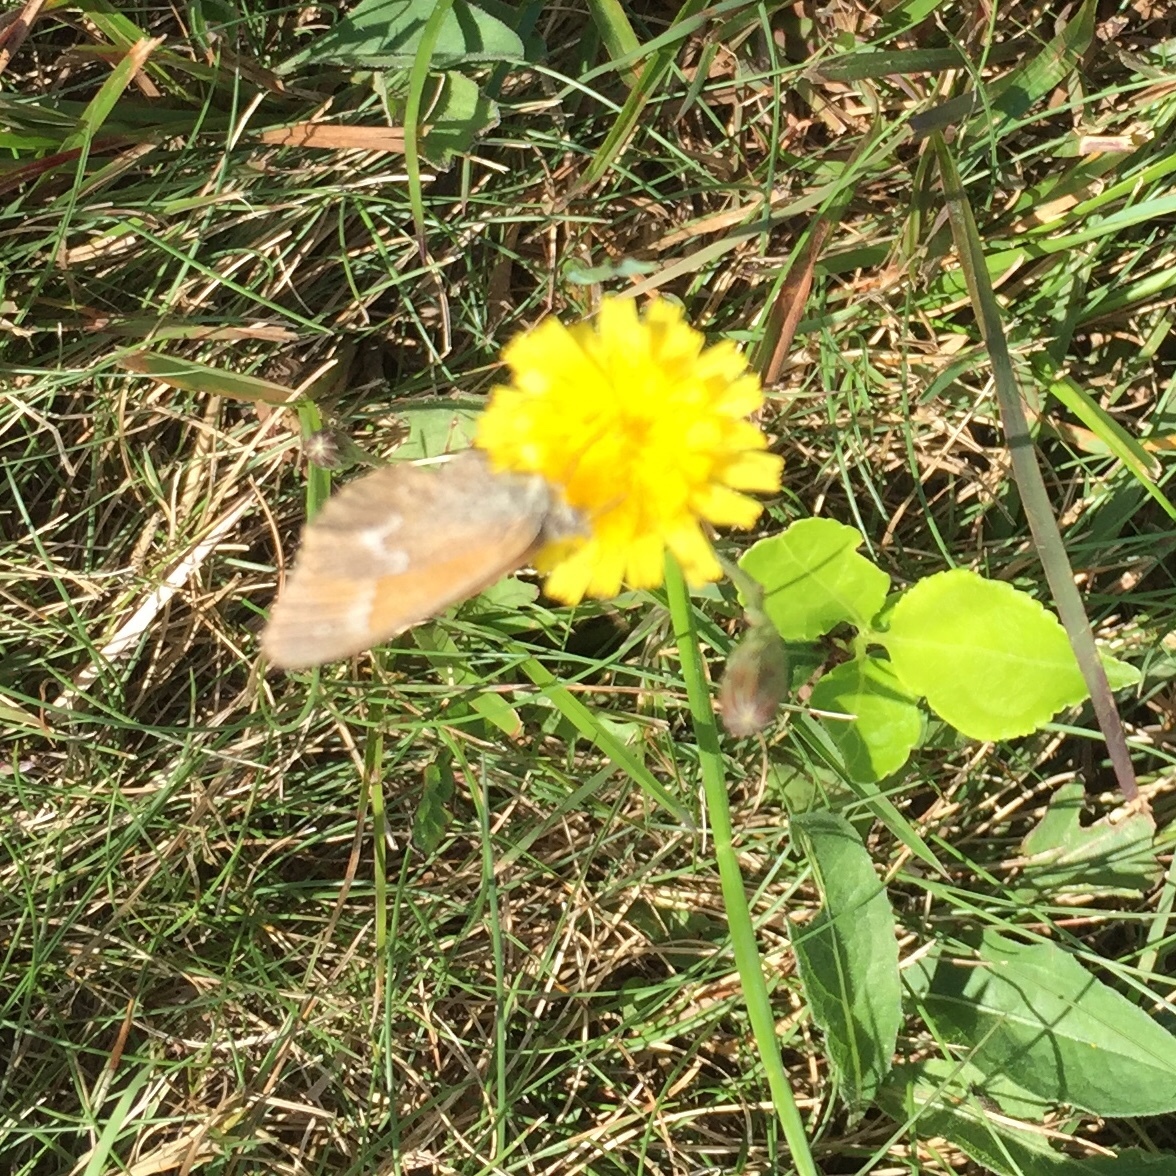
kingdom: Animalia
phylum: Arthropoda
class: Insecta
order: Lepidoptera
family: Nymphalidae
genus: Coenonympha
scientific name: Coenonympha california
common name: Common ringlet
